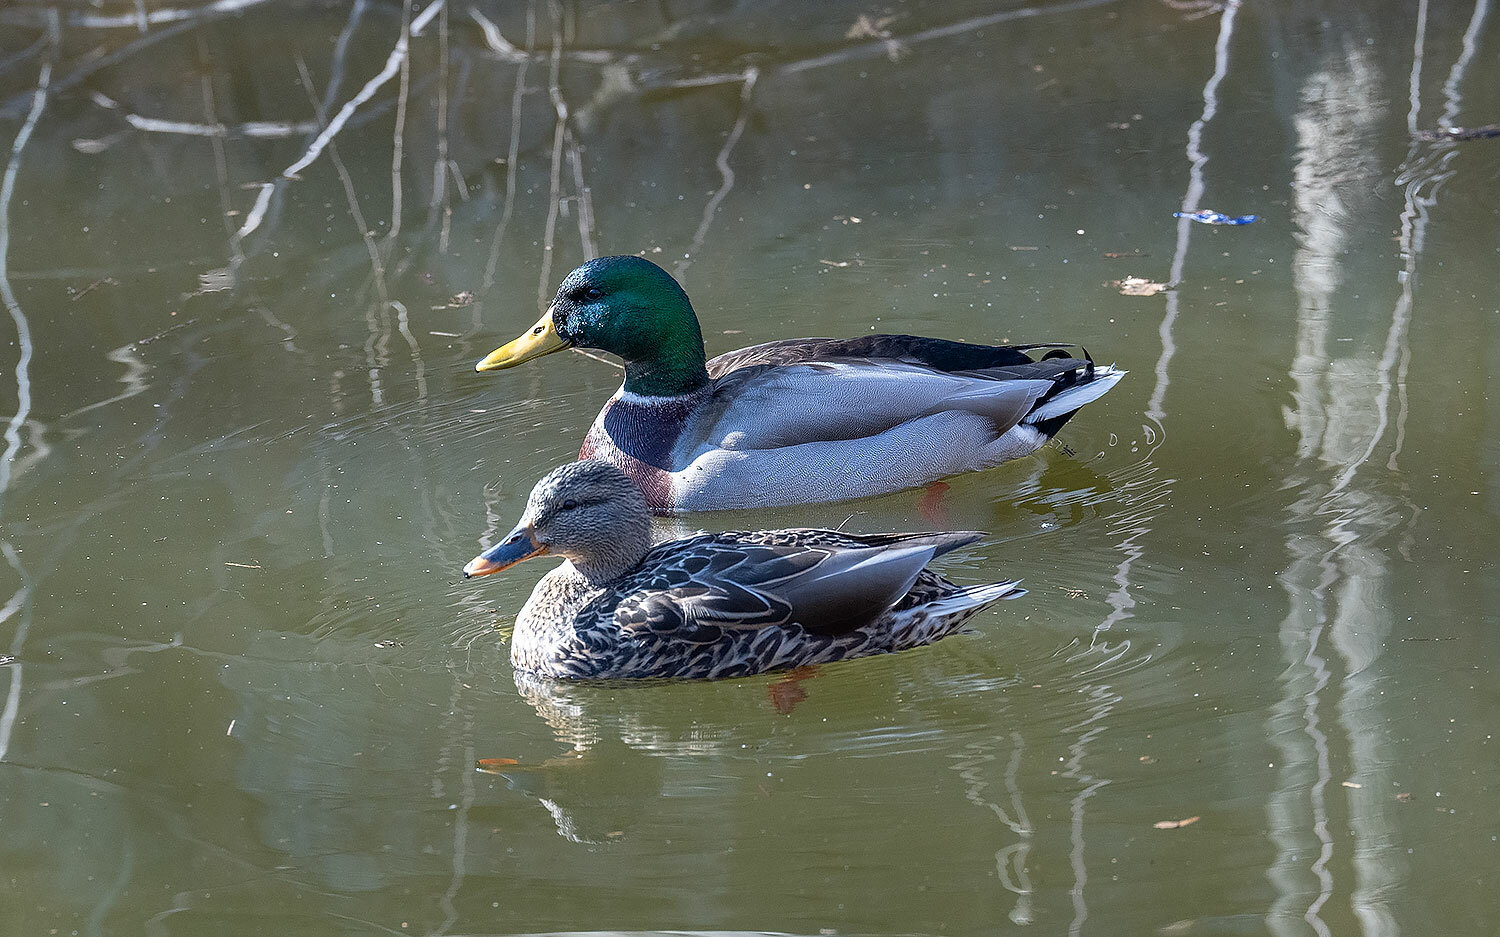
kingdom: Animalia
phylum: Chordata
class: Aves
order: Anseriformes
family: Anatidae
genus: Anas
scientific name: Anas platyrhynchos
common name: Mallard
